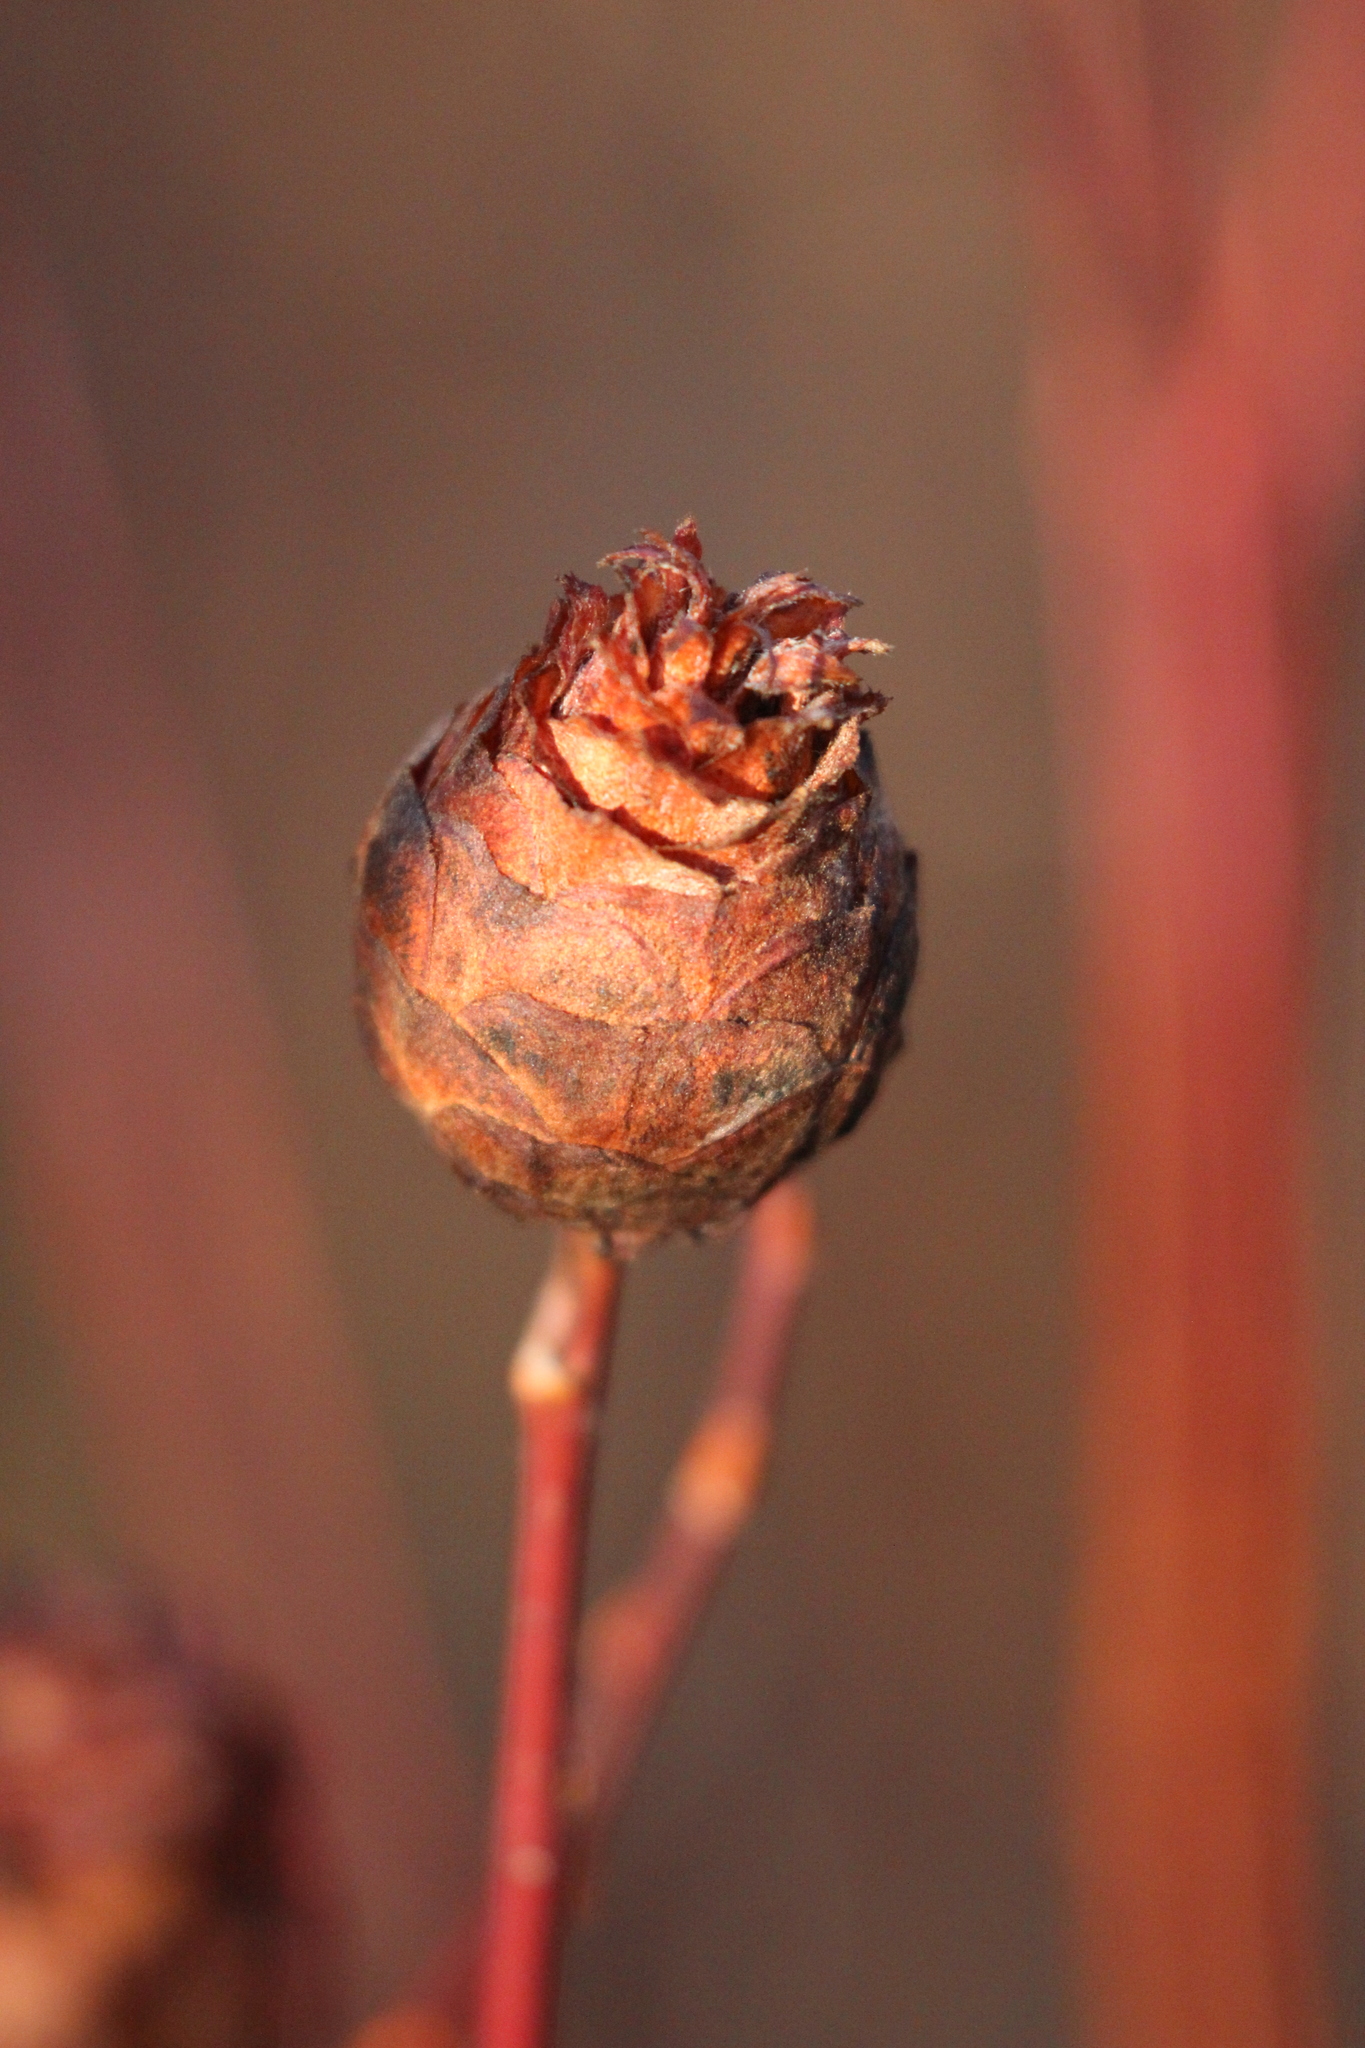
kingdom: Animalia
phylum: Arthropoda
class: Insecta
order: Diptera
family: Cecidomyiidae
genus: Rabdophaga
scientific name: Rabdophaga strobiloides
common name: Willow pinecone gall midge
